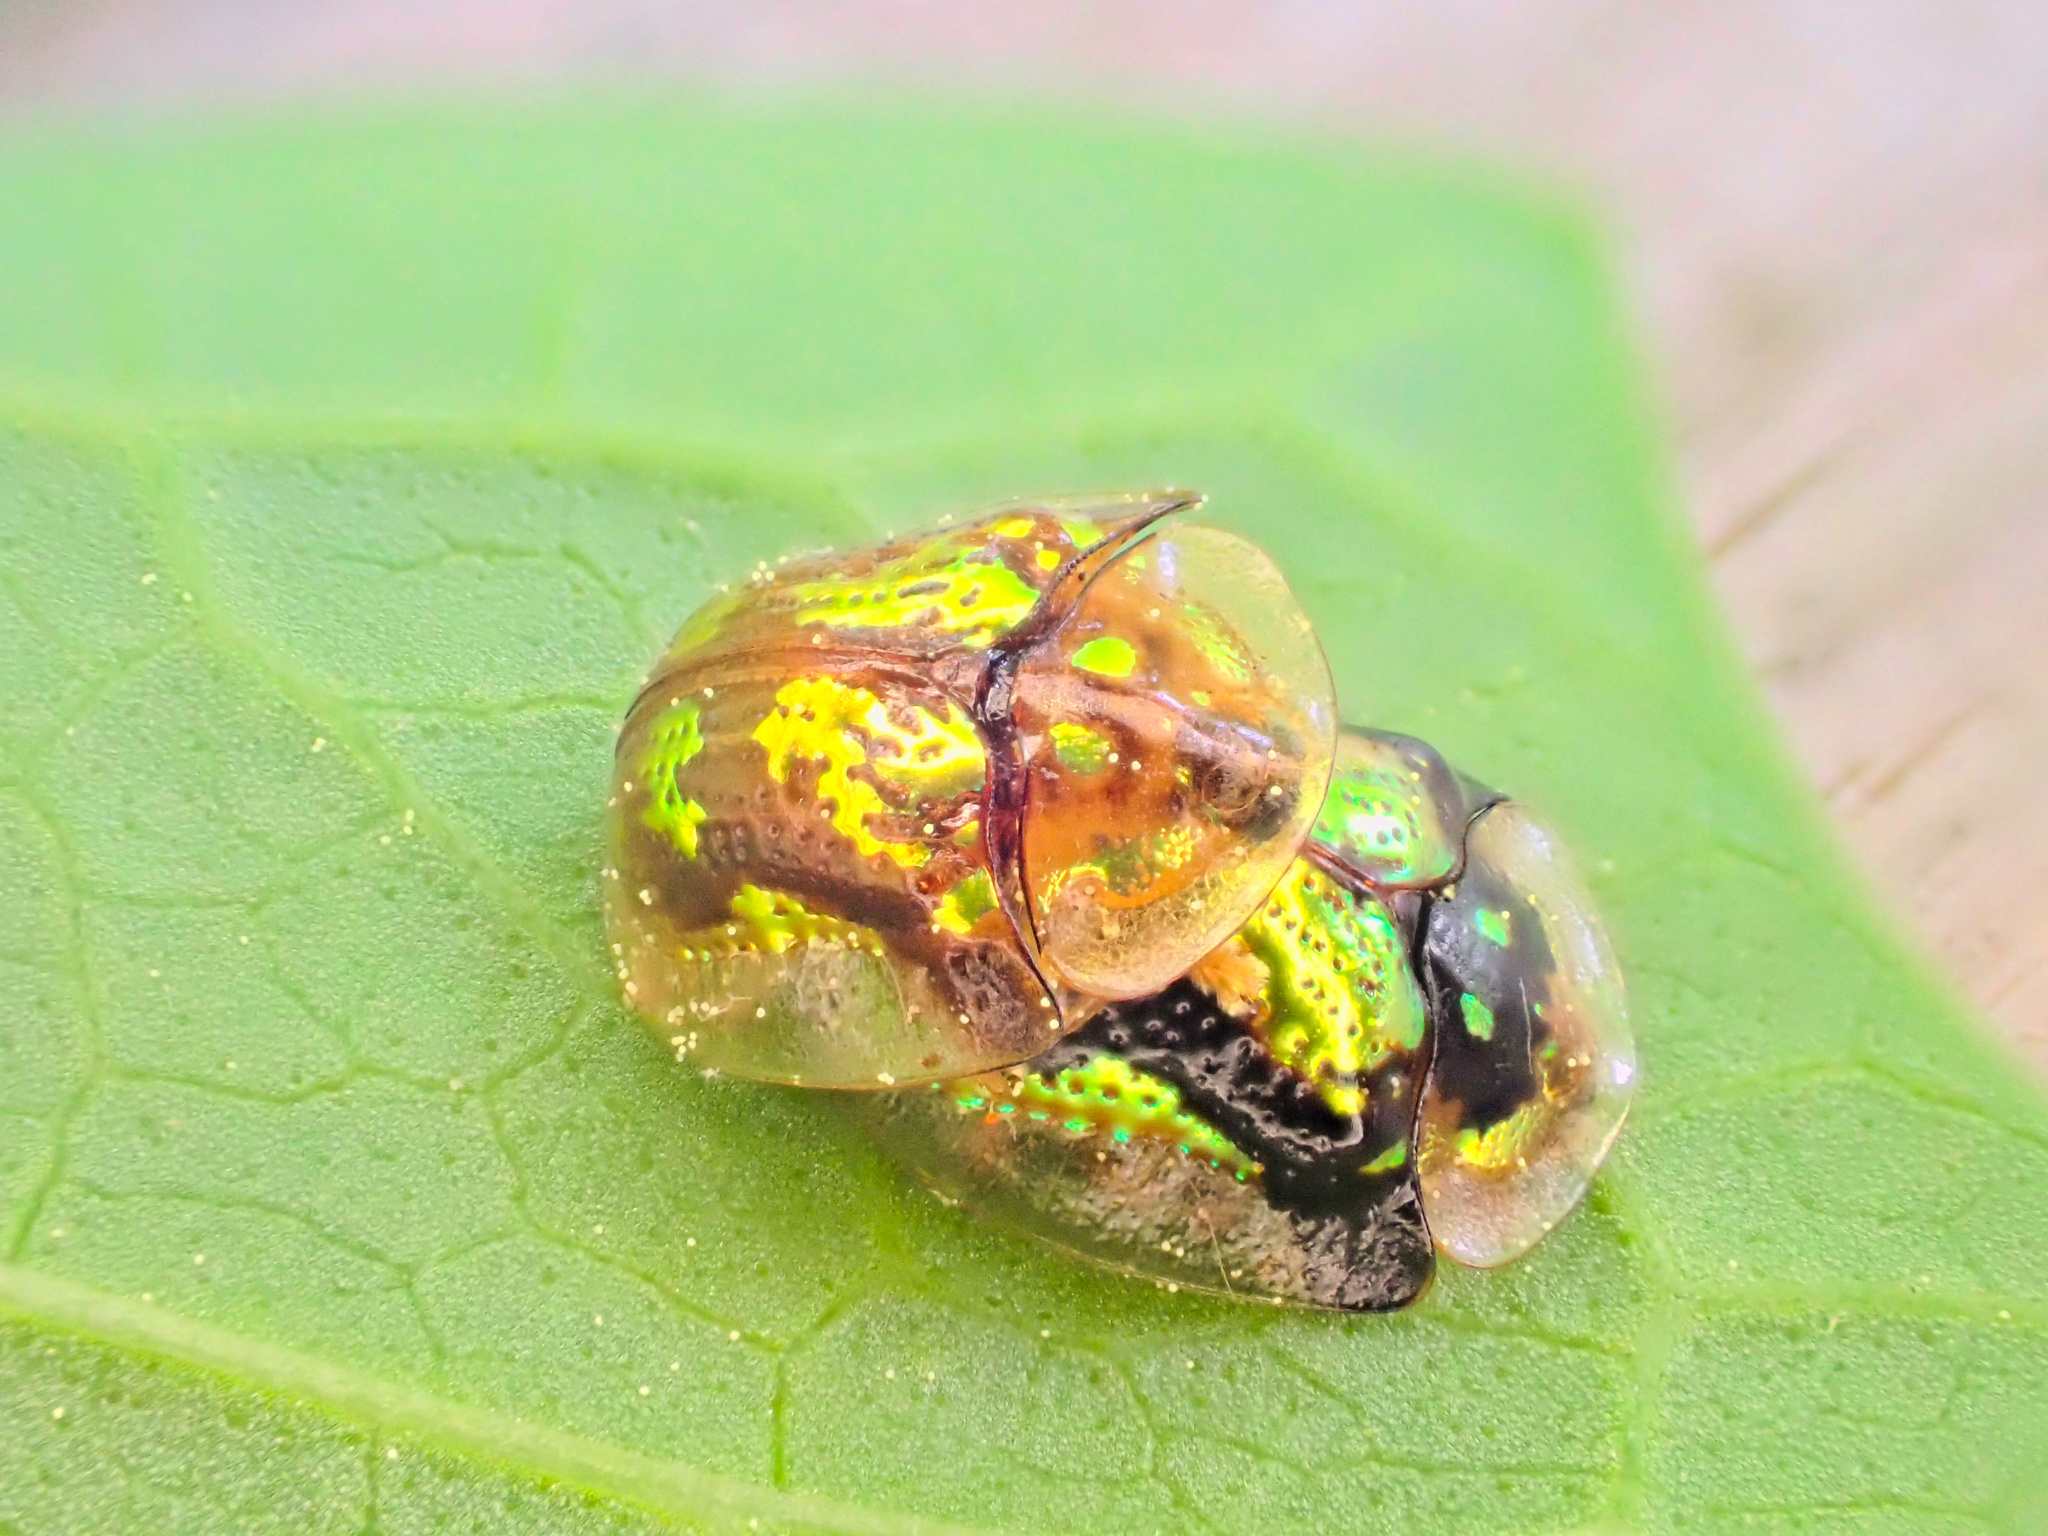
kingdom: Animalia
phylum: Arthropoda
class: Insecta
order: Coleoptera
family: Chrysomelidae
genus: Deloyala
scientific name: Deloyala guttata
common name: Mottled tortoise beetle
